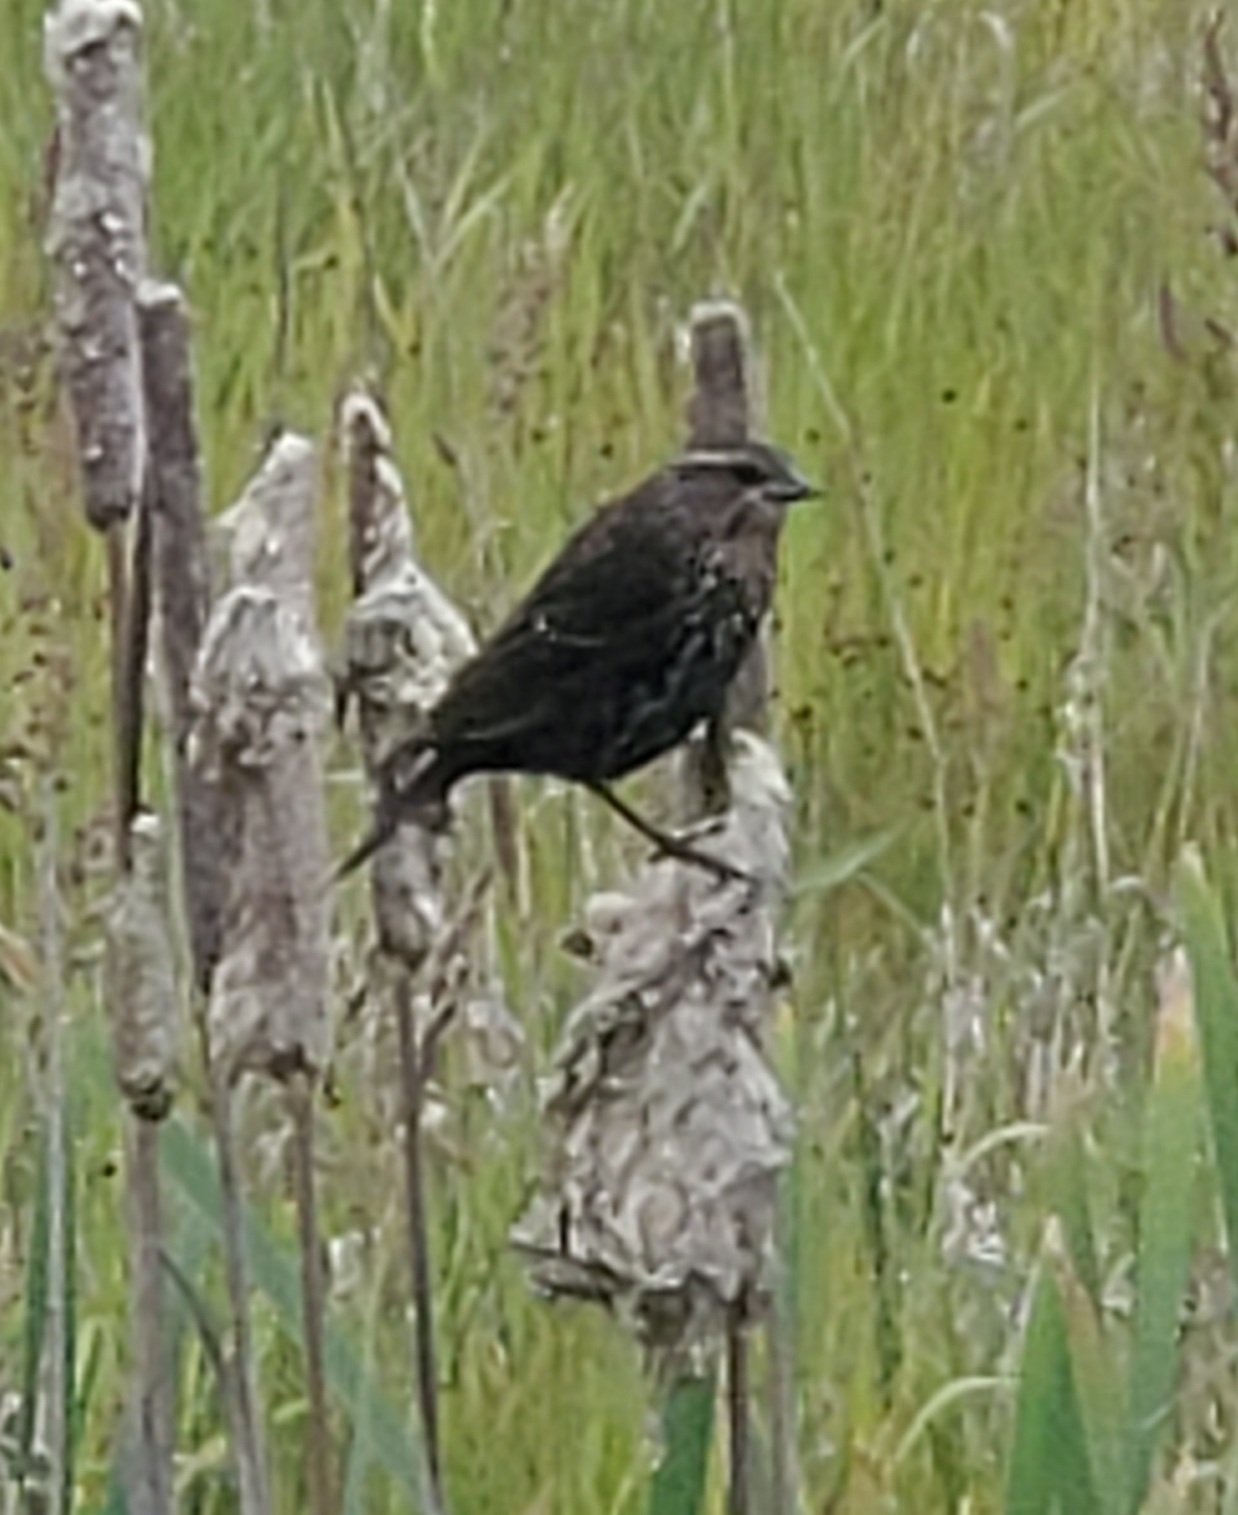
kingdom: Animalia
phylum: Chordata
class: Aves
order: Passeriformes
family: Icteridae
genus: Agelaius
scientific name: Agelaius phoeniceus
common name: Red-winged blackbird
